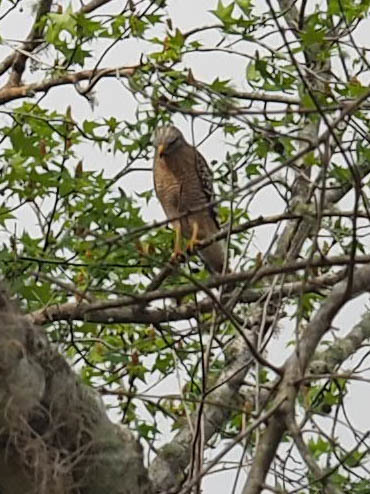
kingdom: Animalia
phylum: Chordata
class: Aves
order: Accipitriformes
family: Accipitridae
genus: Buteo
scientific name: Buteo lineatus
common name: Red-shouldered hawk
